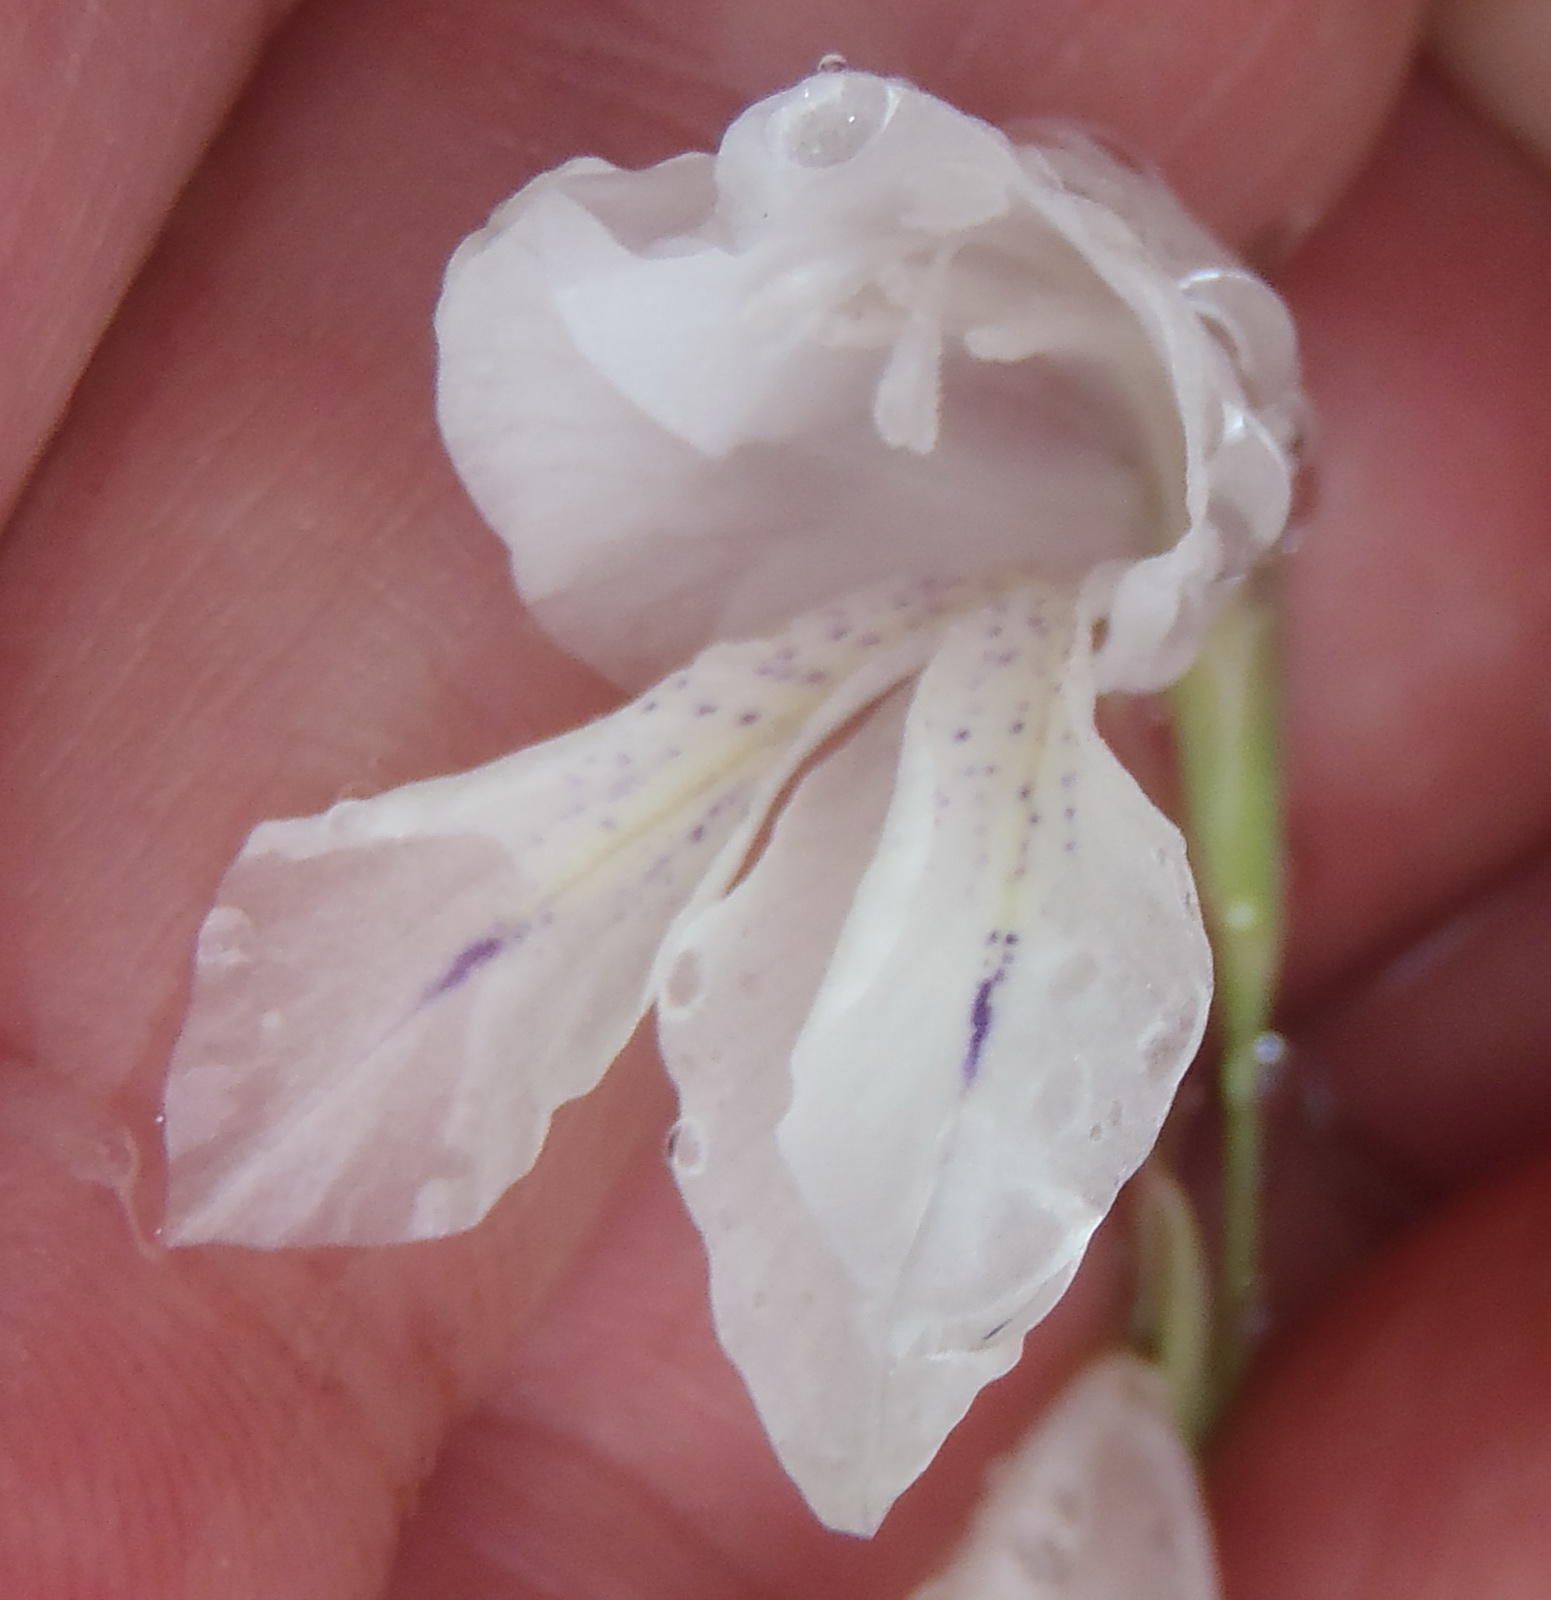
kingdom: Plantae
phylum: Tracheophyta
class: Liliopsida
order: Asparagales
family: Iridaceae
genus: Gladiolus
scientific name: Gladiolus vaginatus
